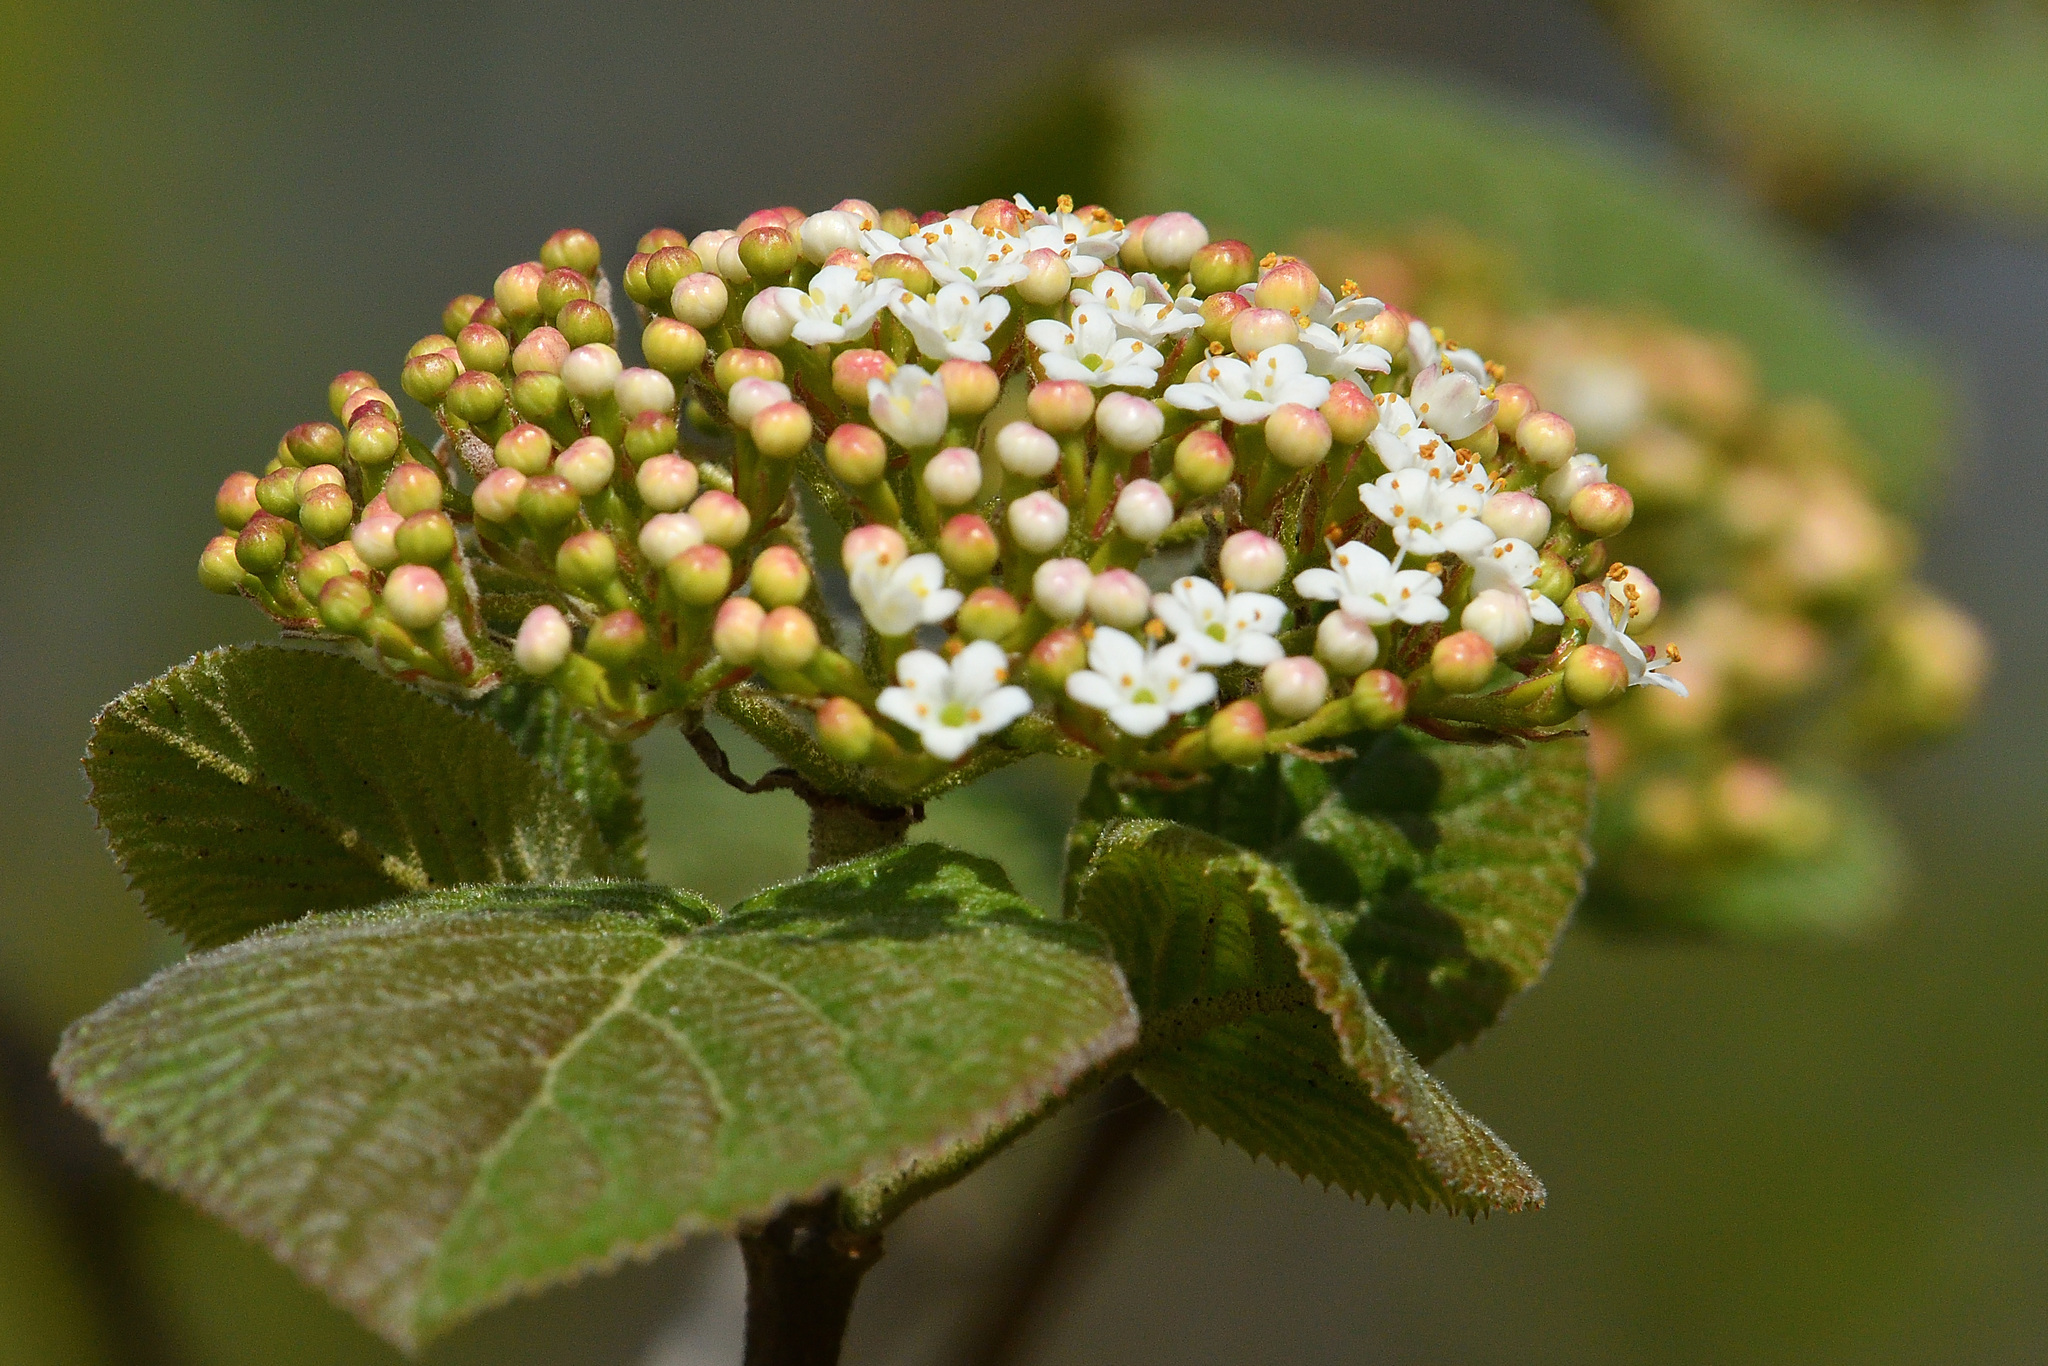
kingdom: Plantae
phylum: Tracheophyta
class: Magnoliopsida
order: Dipsacales
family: Viburnaceae
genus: Viburnum
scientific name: Viburnum lantana
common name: Wayfaring tree
